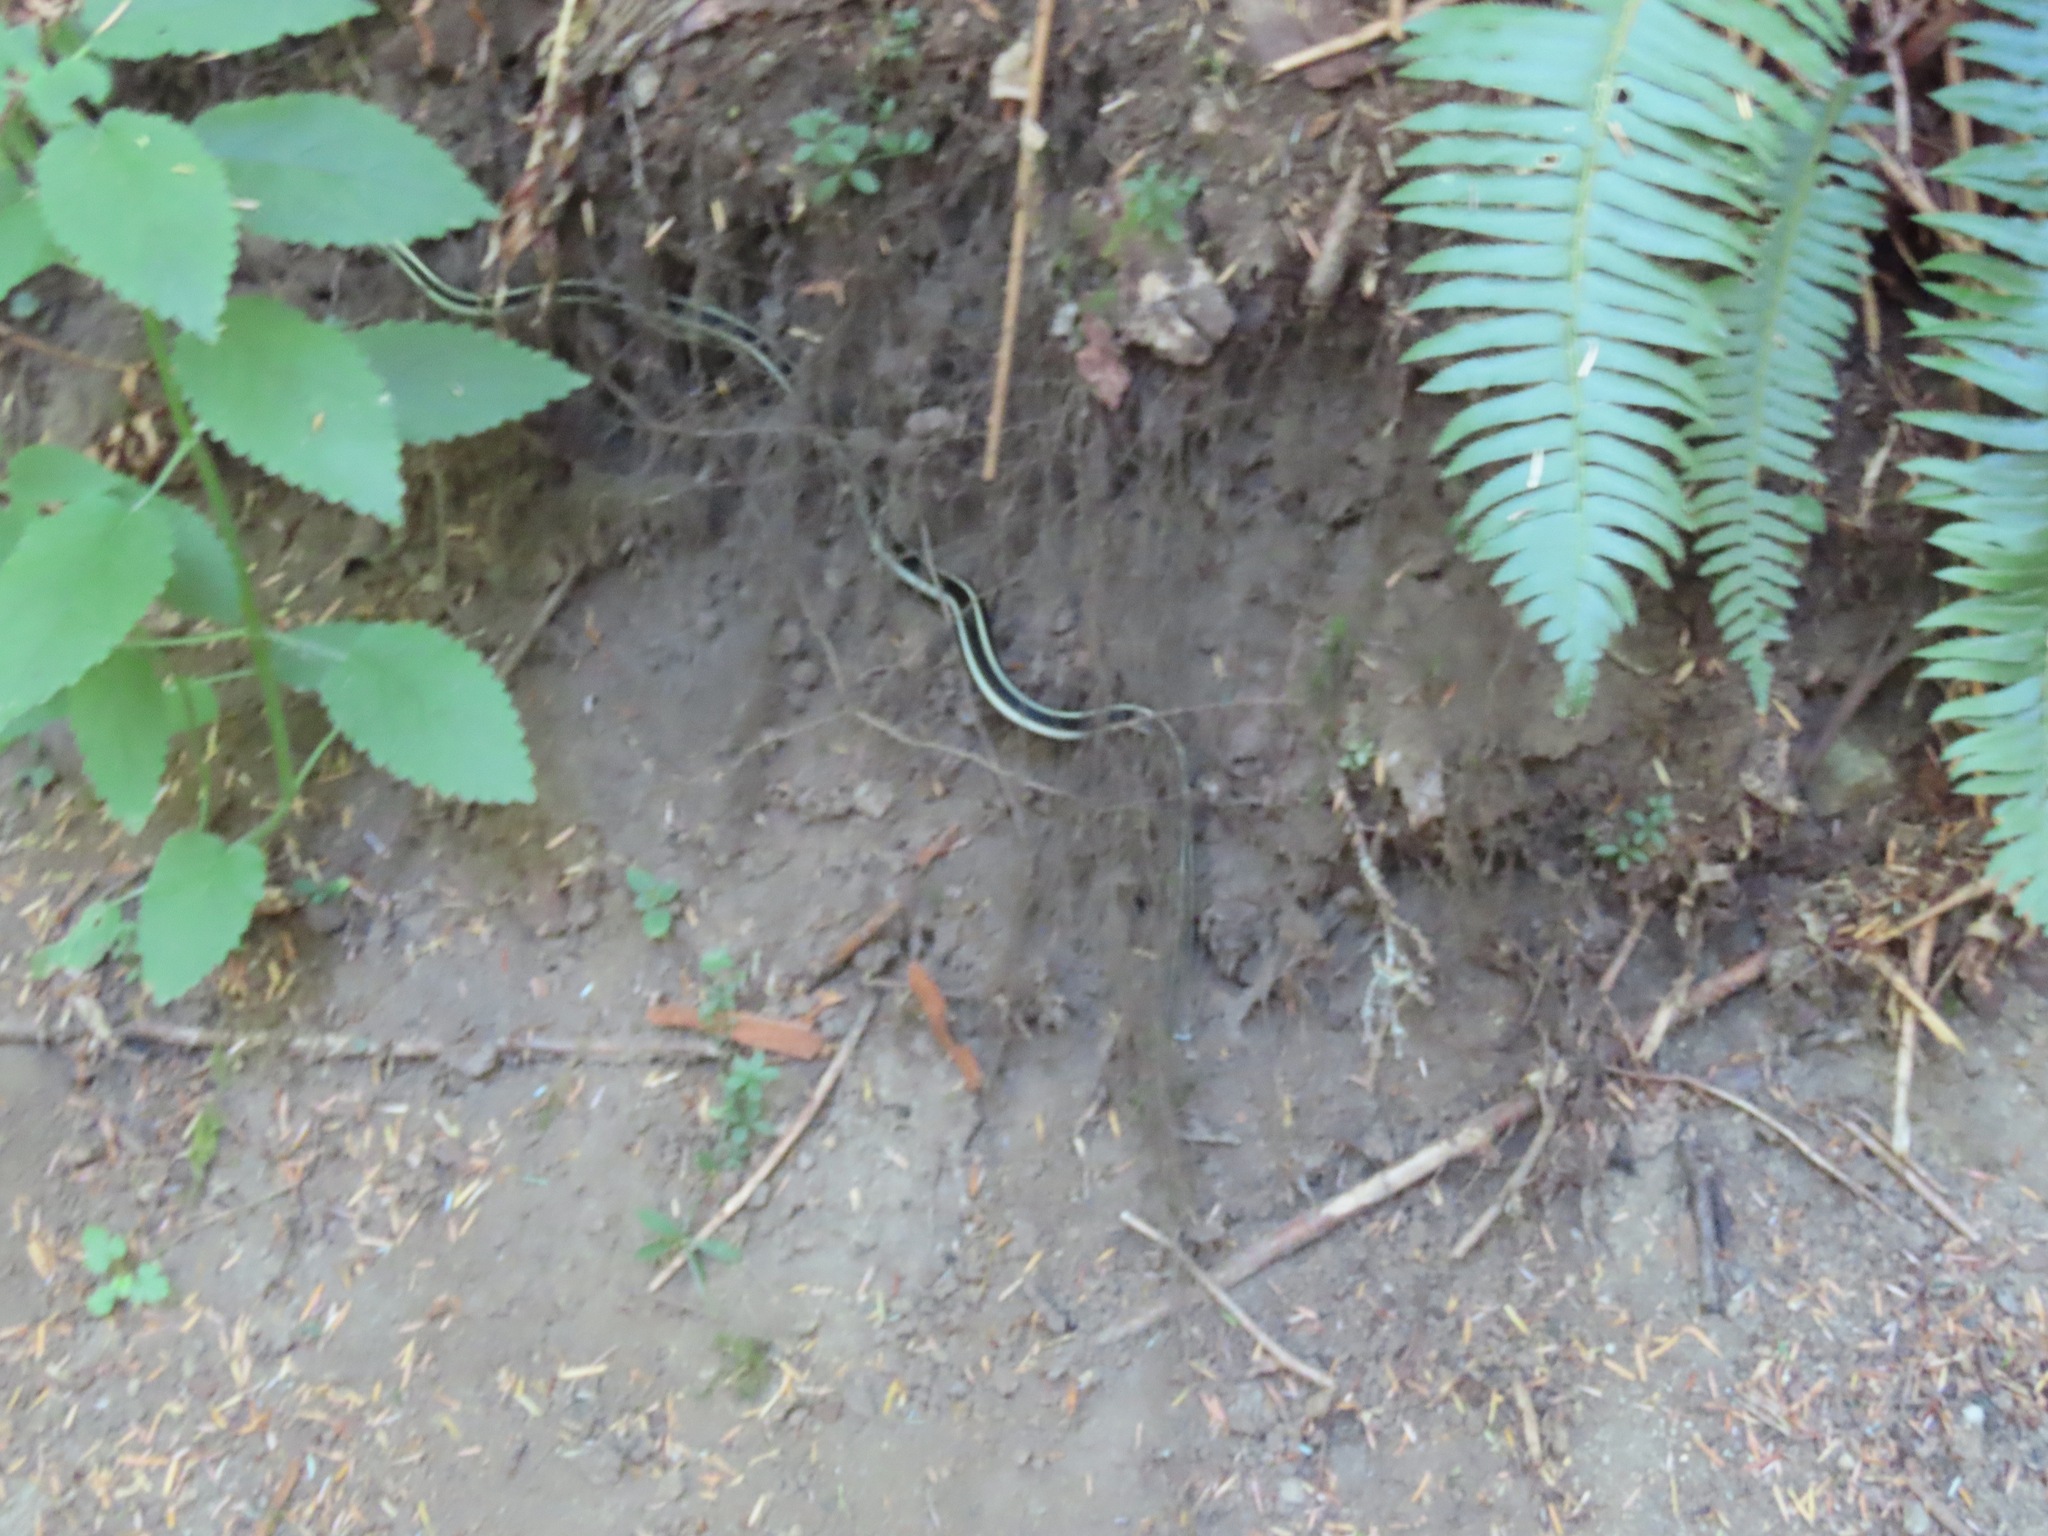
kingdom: Animalia
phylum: Chordata
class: Squamata
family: Colubridae
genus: Thamnophis
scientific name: Thamnophis sirtalis
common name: Common garter snake
